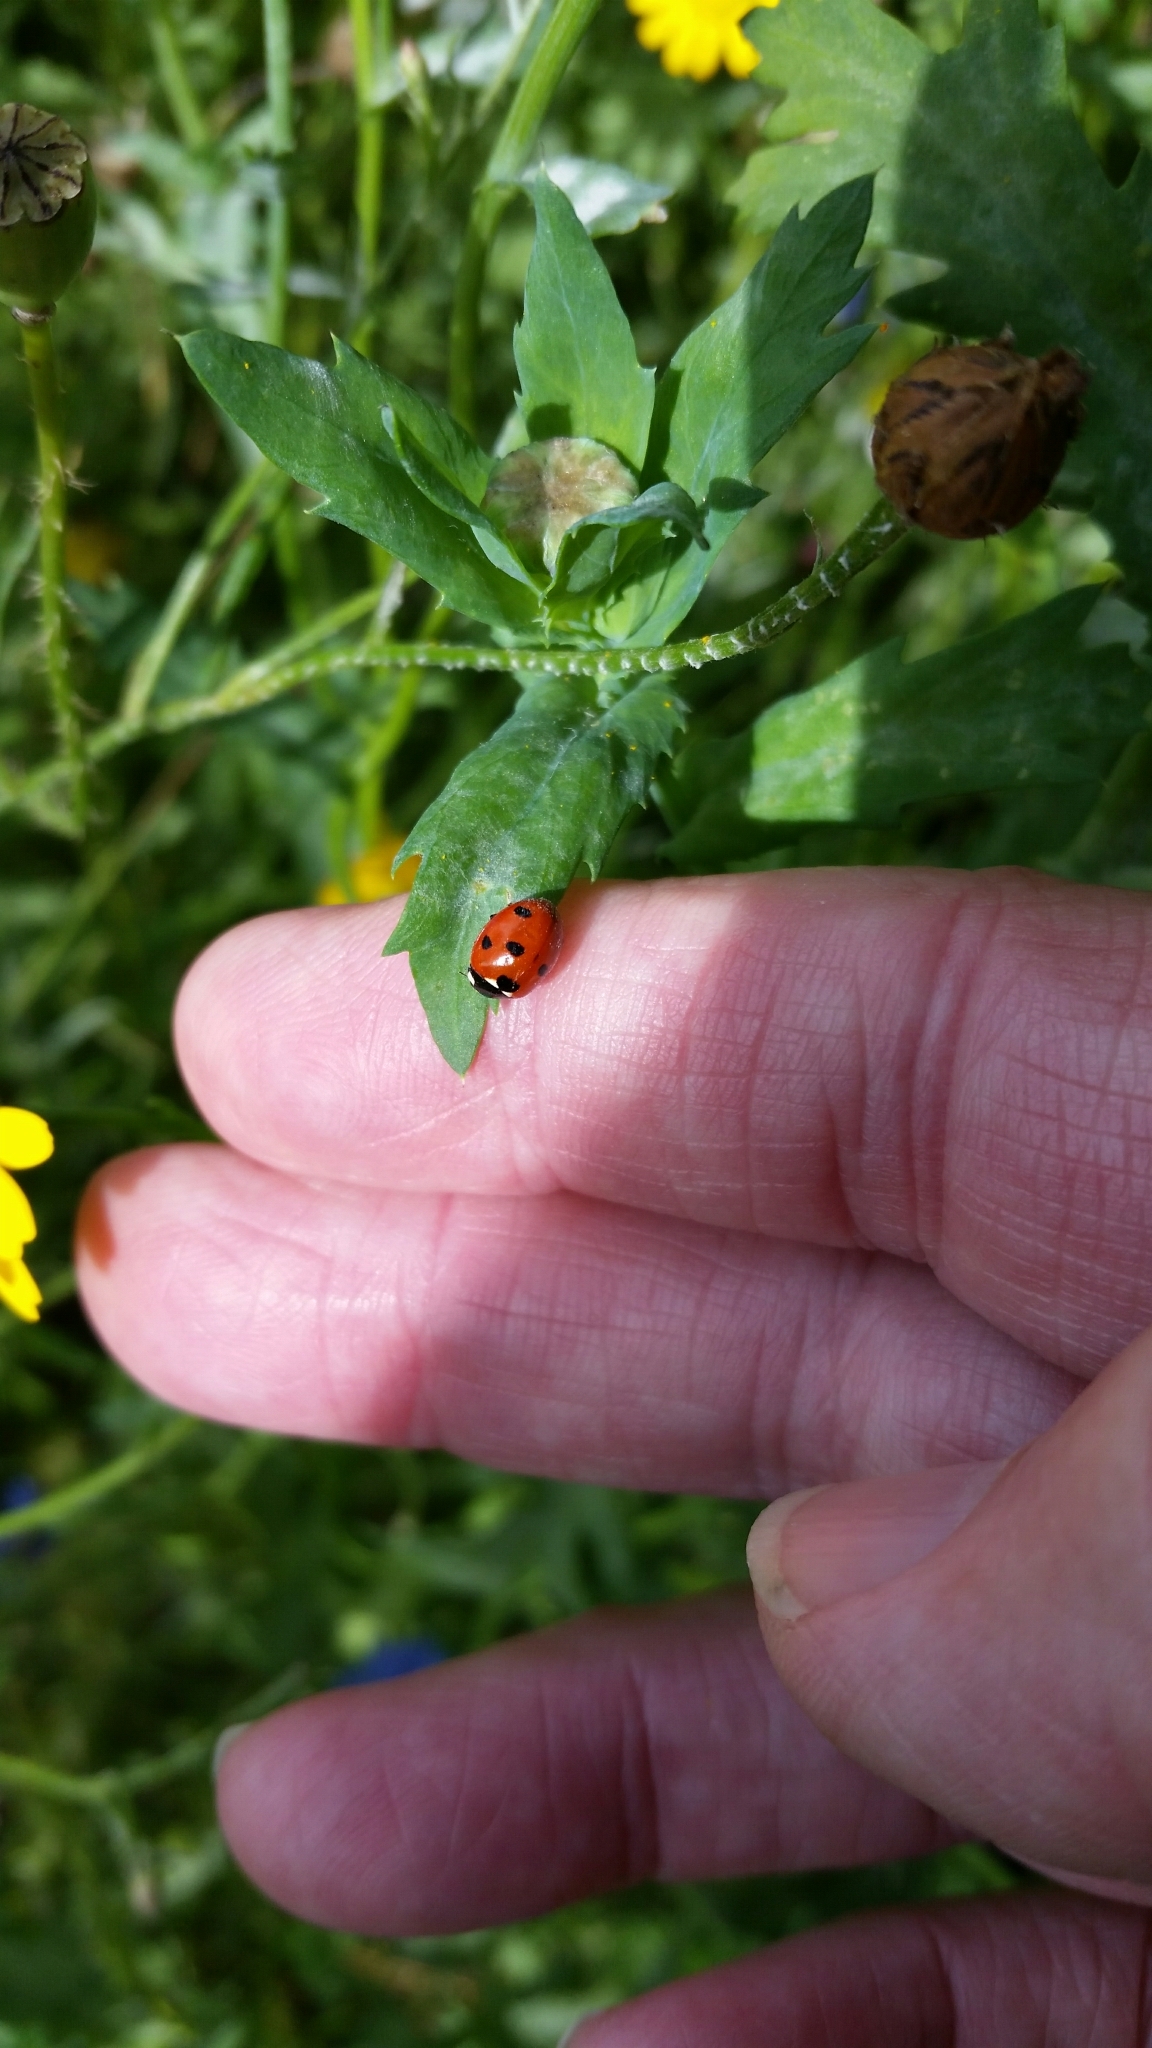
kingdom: Animalia
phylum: Arthropoda
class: Insecta
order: Coleoptera
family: Coccinellidae
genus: Coccinella
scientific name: Coccinella septempunctata
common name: Sevenspotted lady beetle
